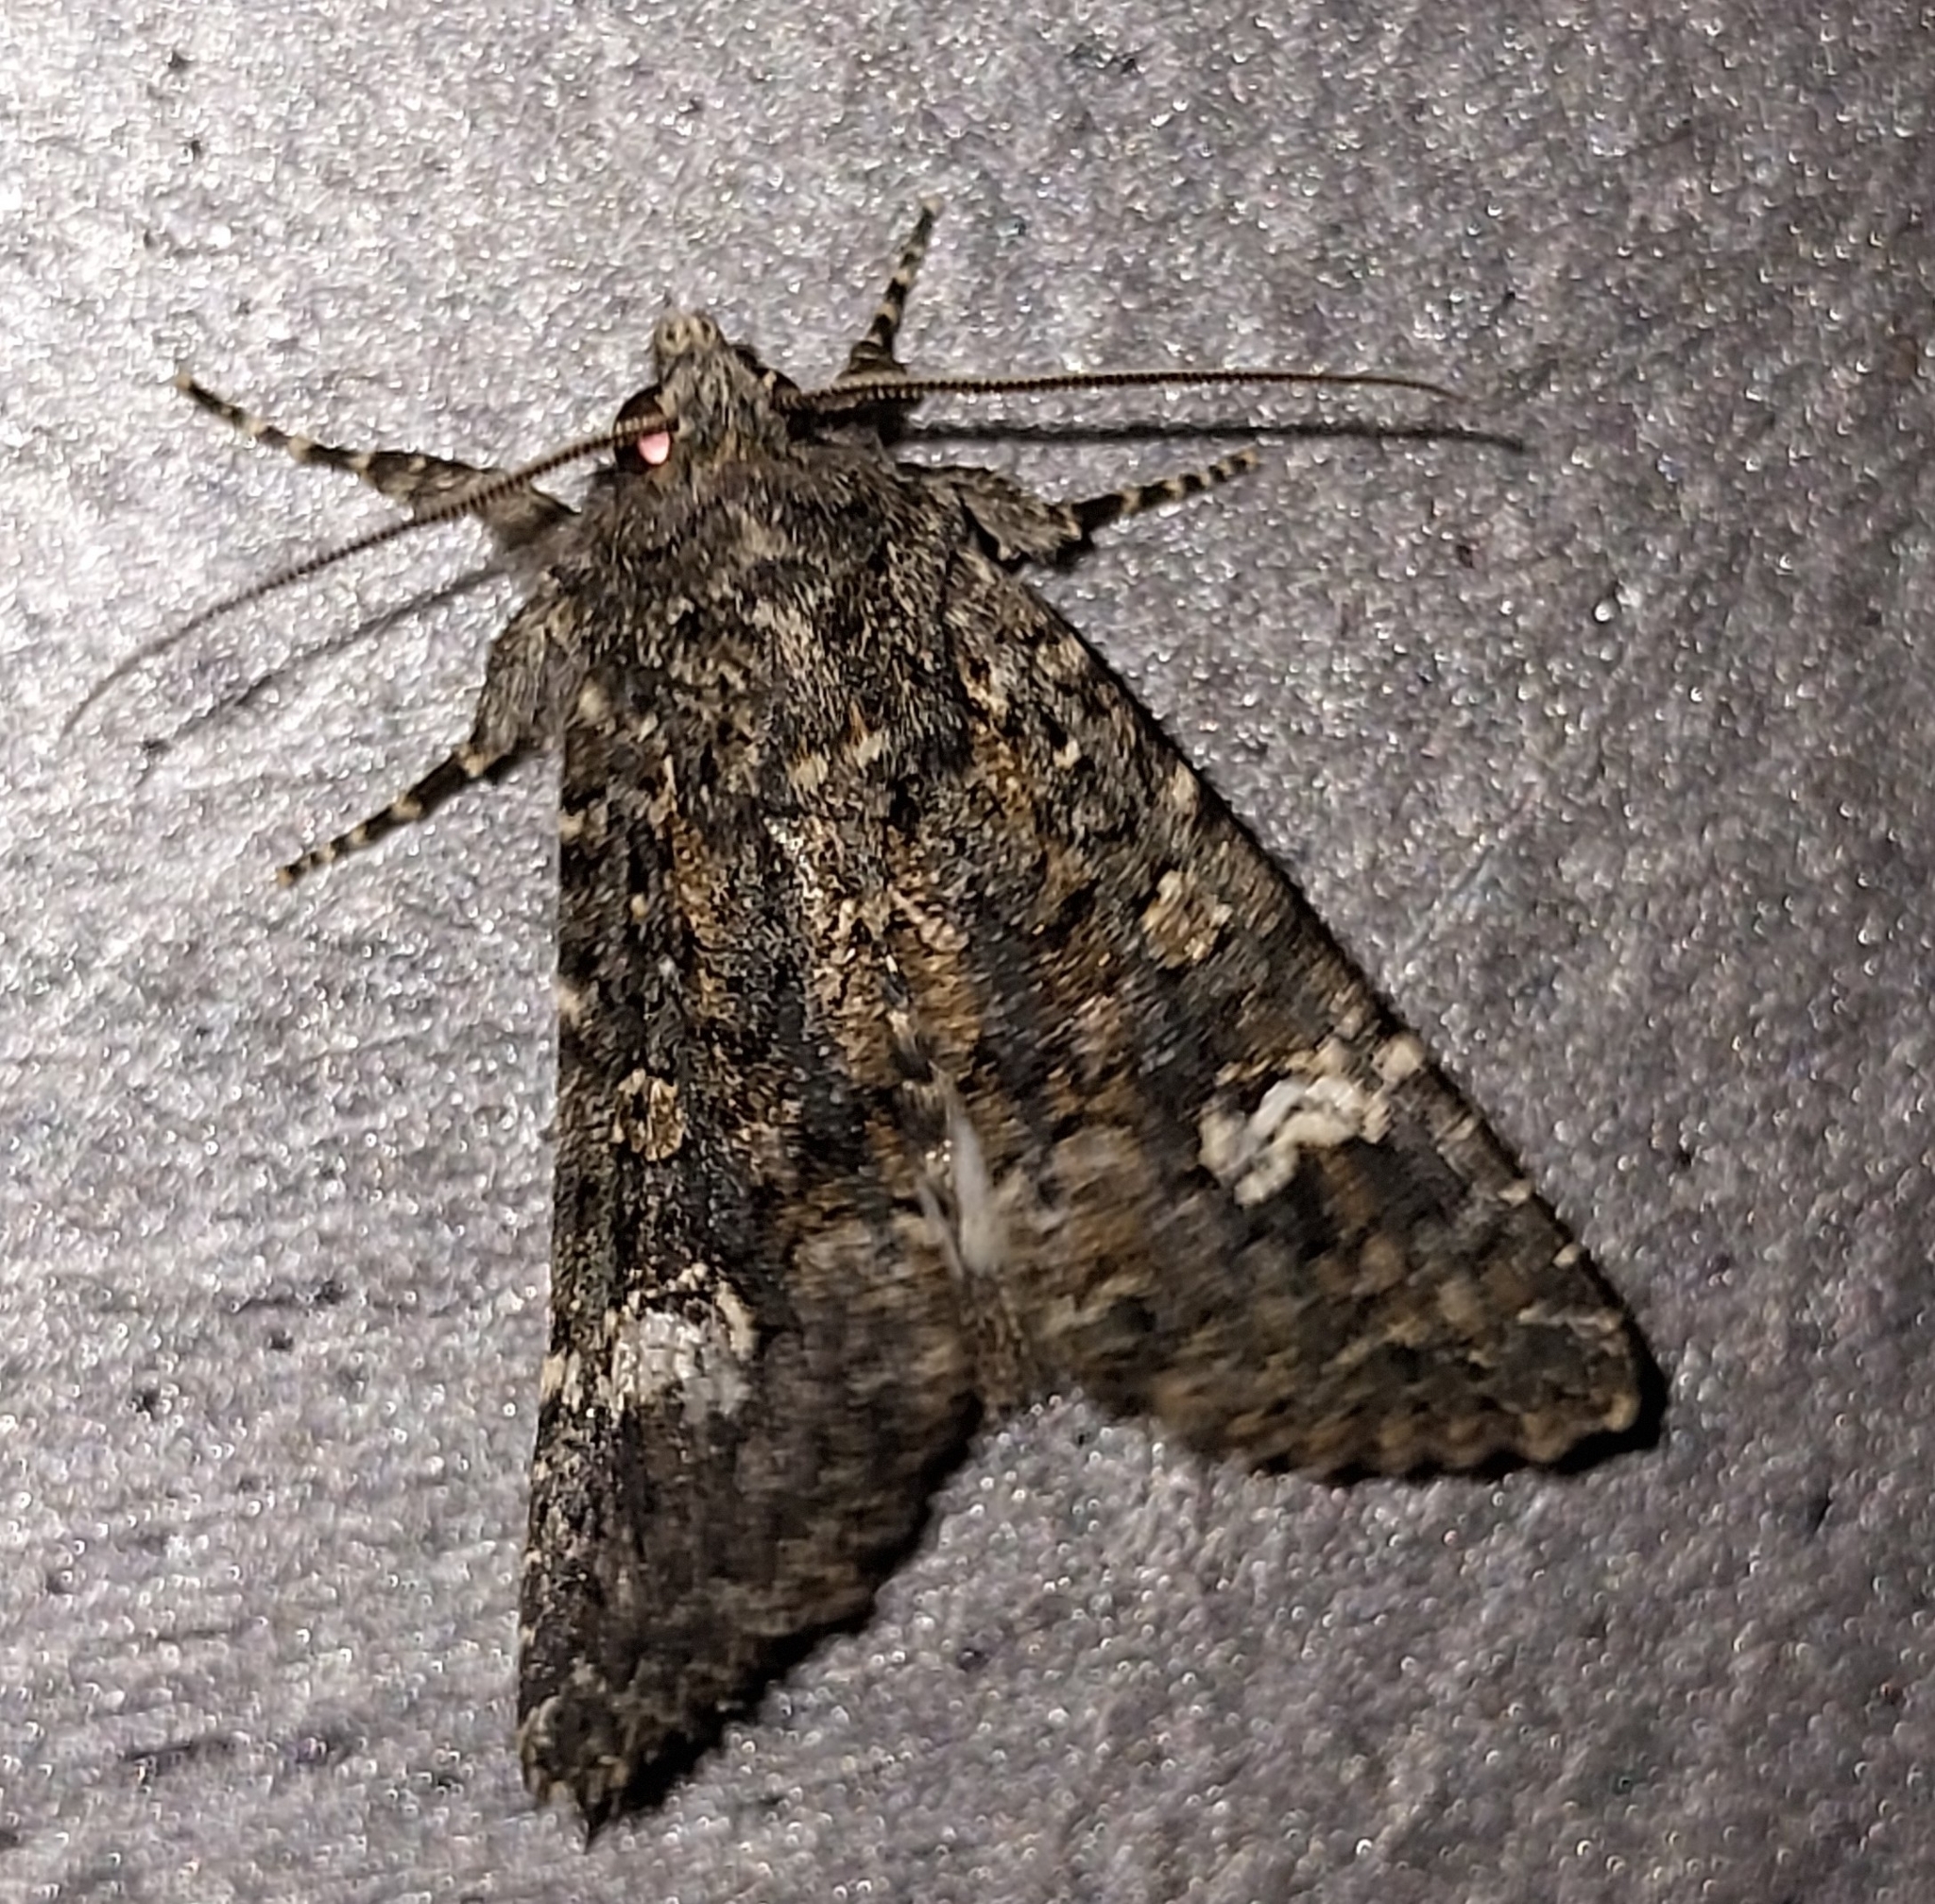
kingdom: Animalia
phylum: Arthropoda
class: Insecta
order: Lepidoptera
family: Noctuidae
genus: Polymixis
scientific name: Polymixis serpentina
